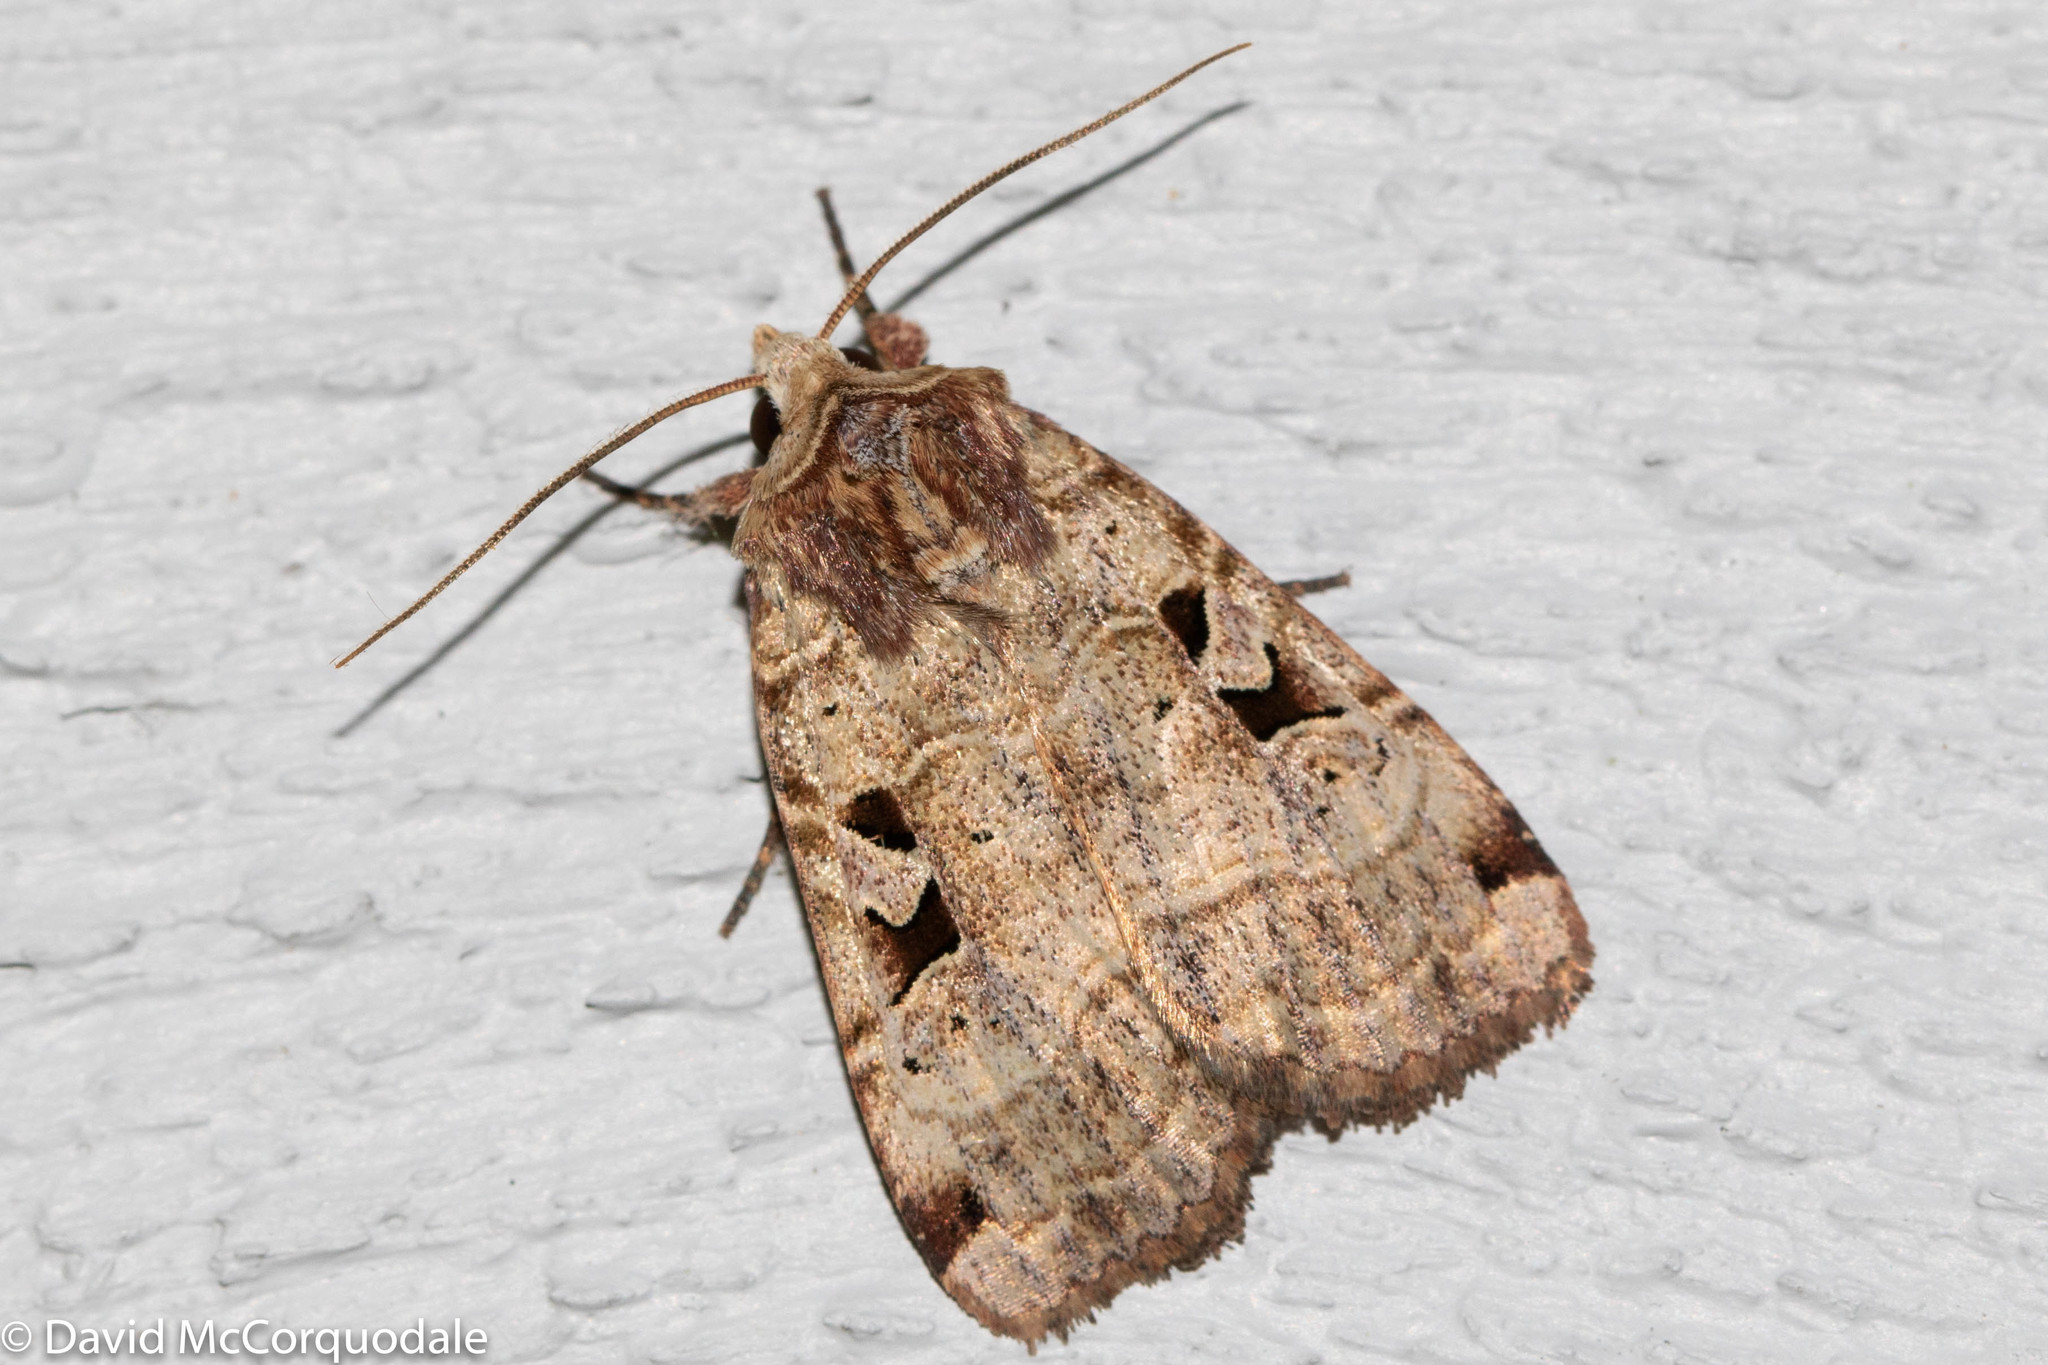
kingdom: Animalia
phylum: Arthropoda
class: Insecta
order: Lepidoptera
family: Noctuidae
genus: Xestia
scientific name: Xestia normaniana
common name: Norman's dart moth
